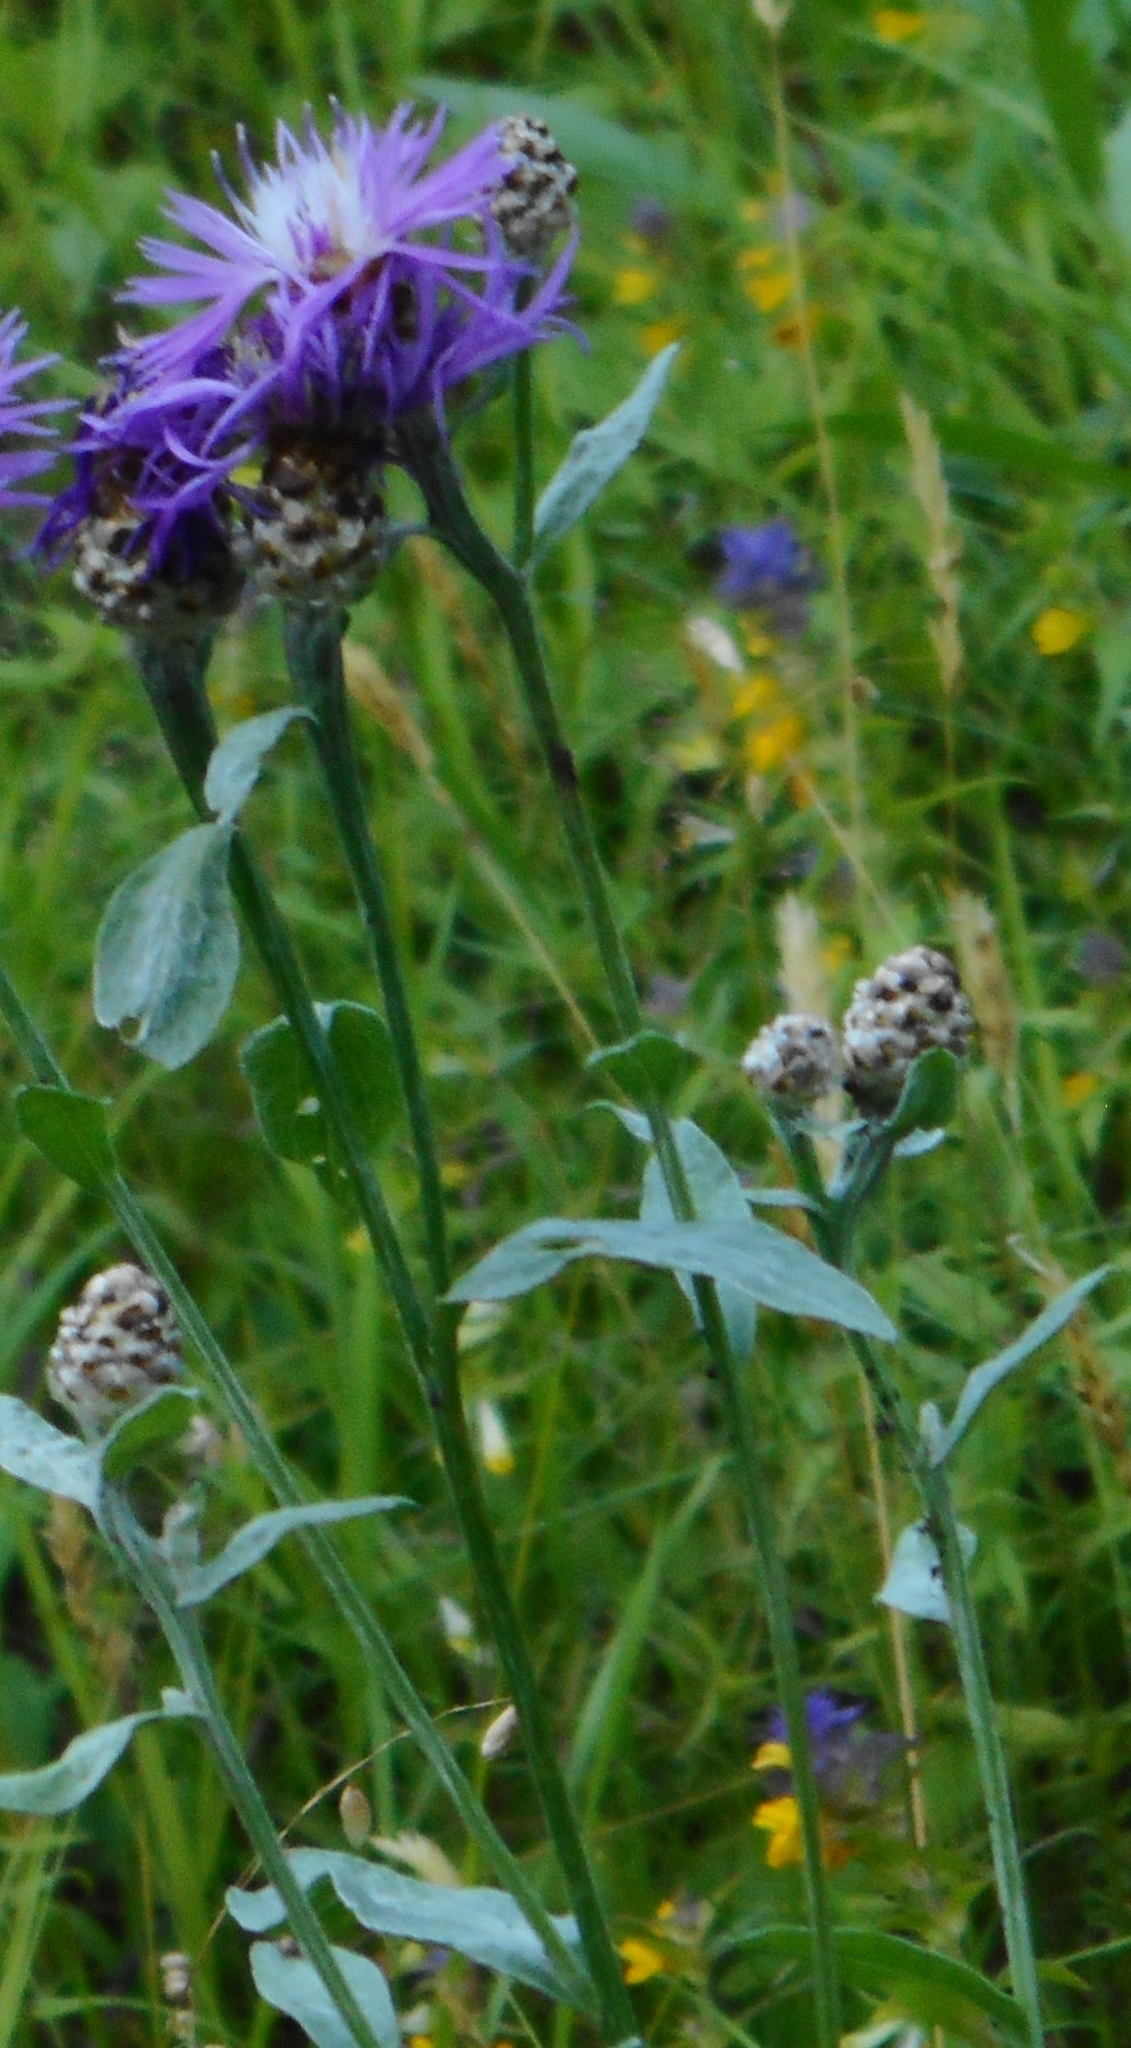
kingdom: Plantae
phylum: Tracheophyta
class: Magnoliopsida
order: Asterales
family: Asteraceae
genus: Centaurea
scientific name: Centaurea jacea
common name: Brown knapweed
